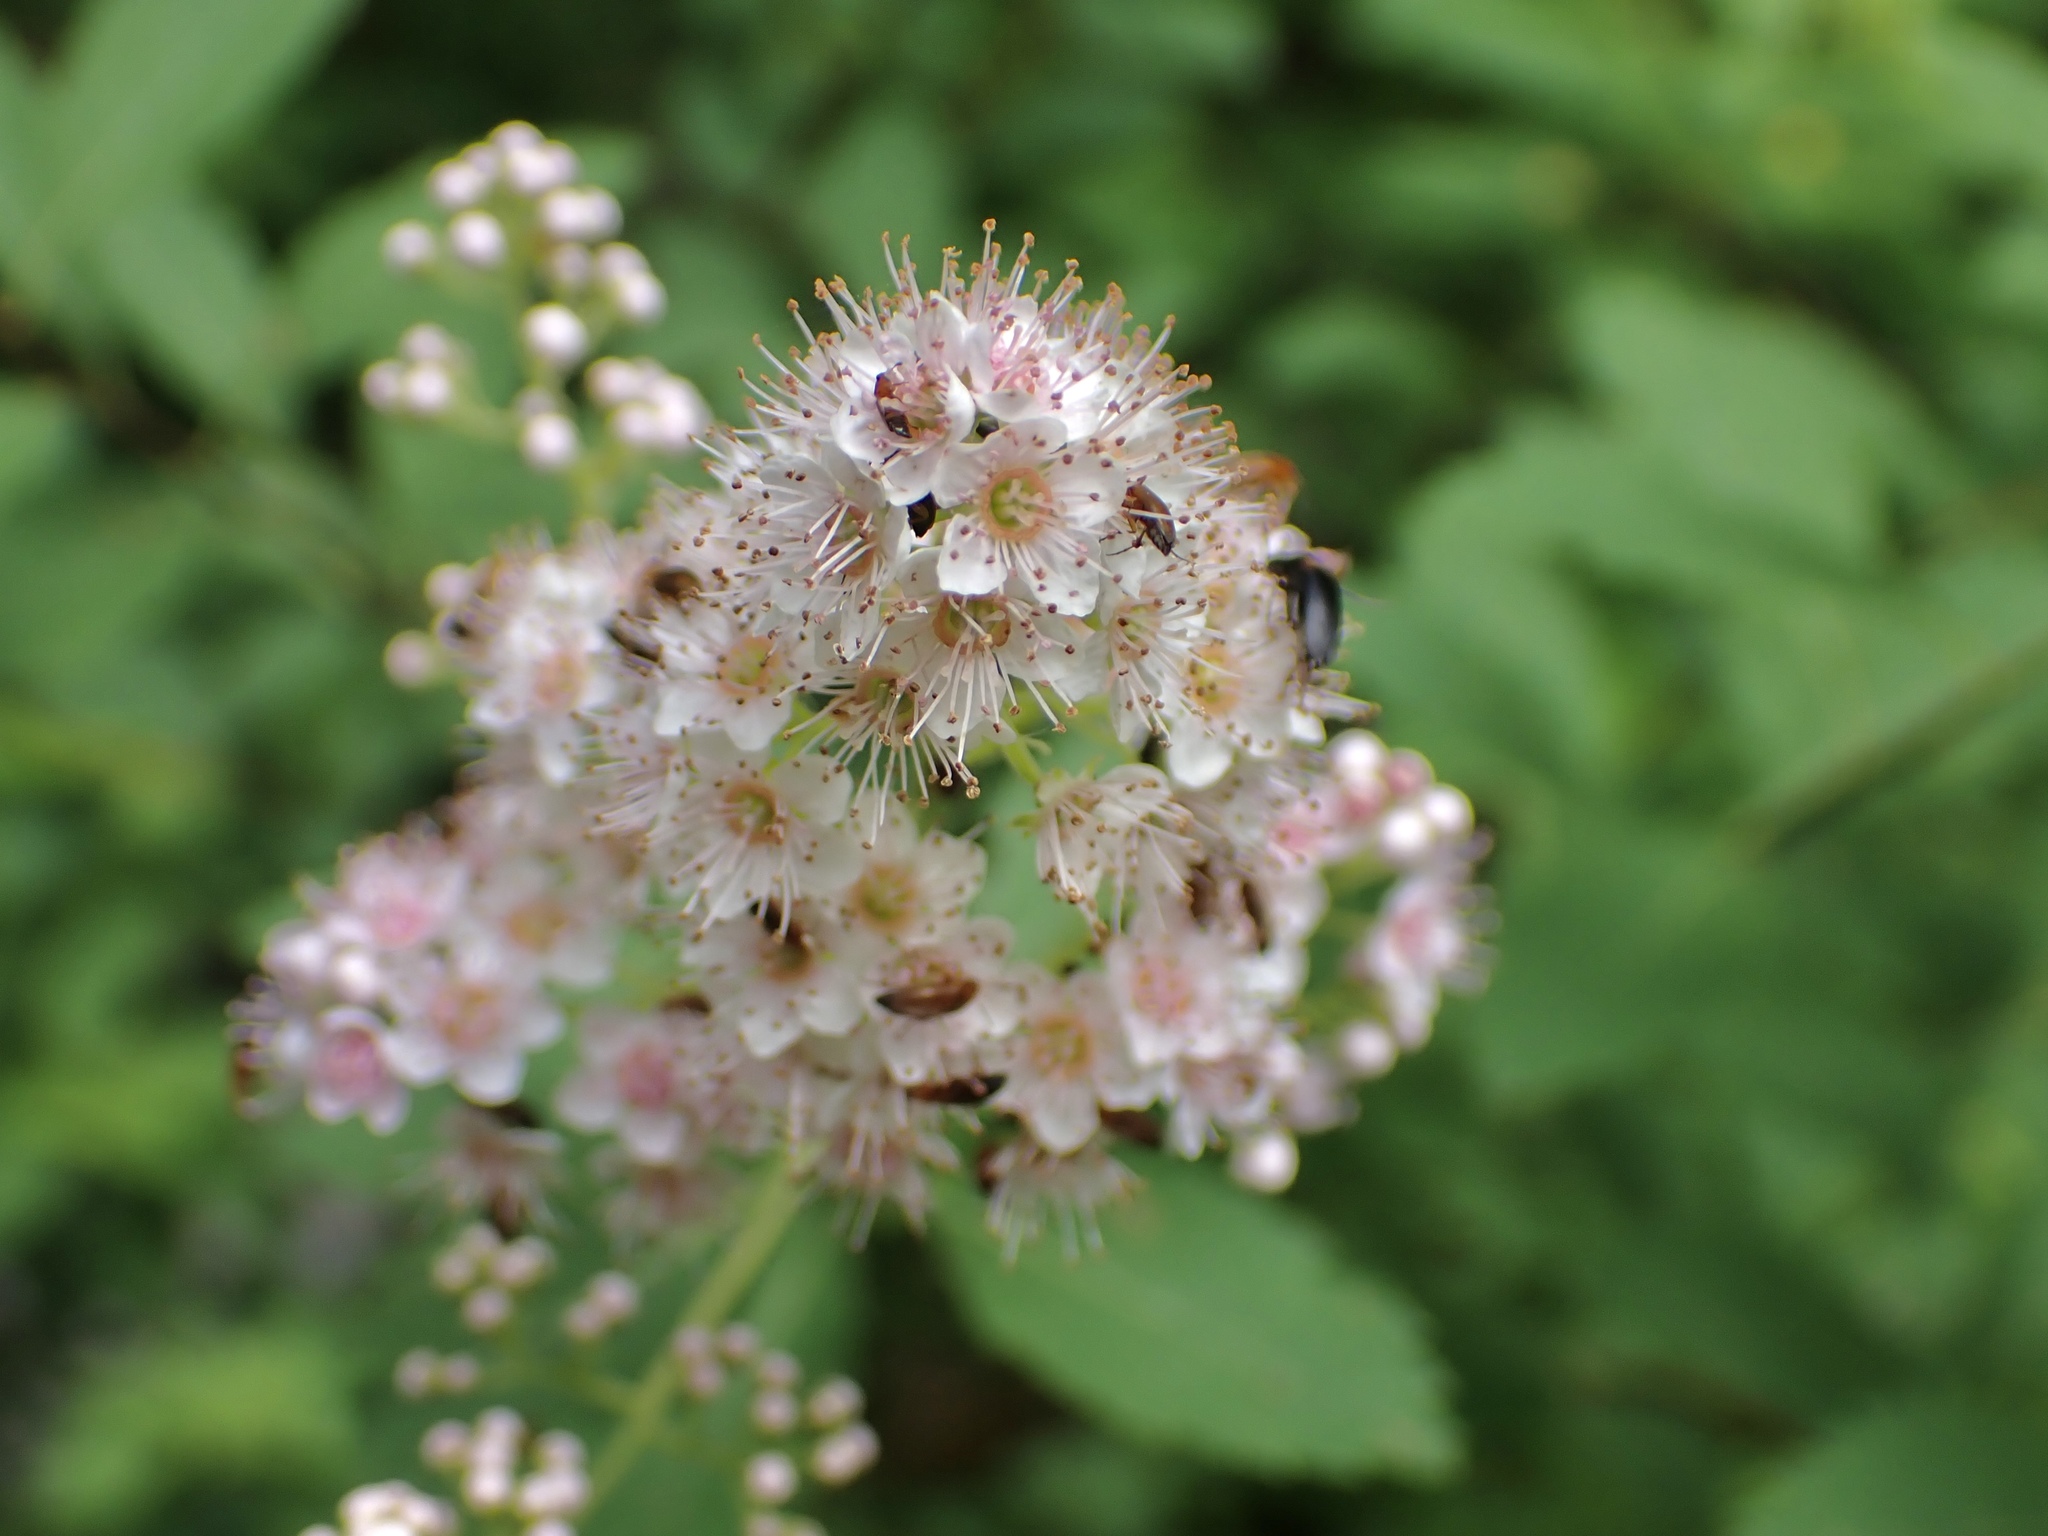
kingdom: Plantae
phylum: Tracheophyta
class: Magnoliopsida
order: Rosales
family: Rosaceae
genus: Spiraea
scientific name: Spiraea alba
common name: Pale bridewort
